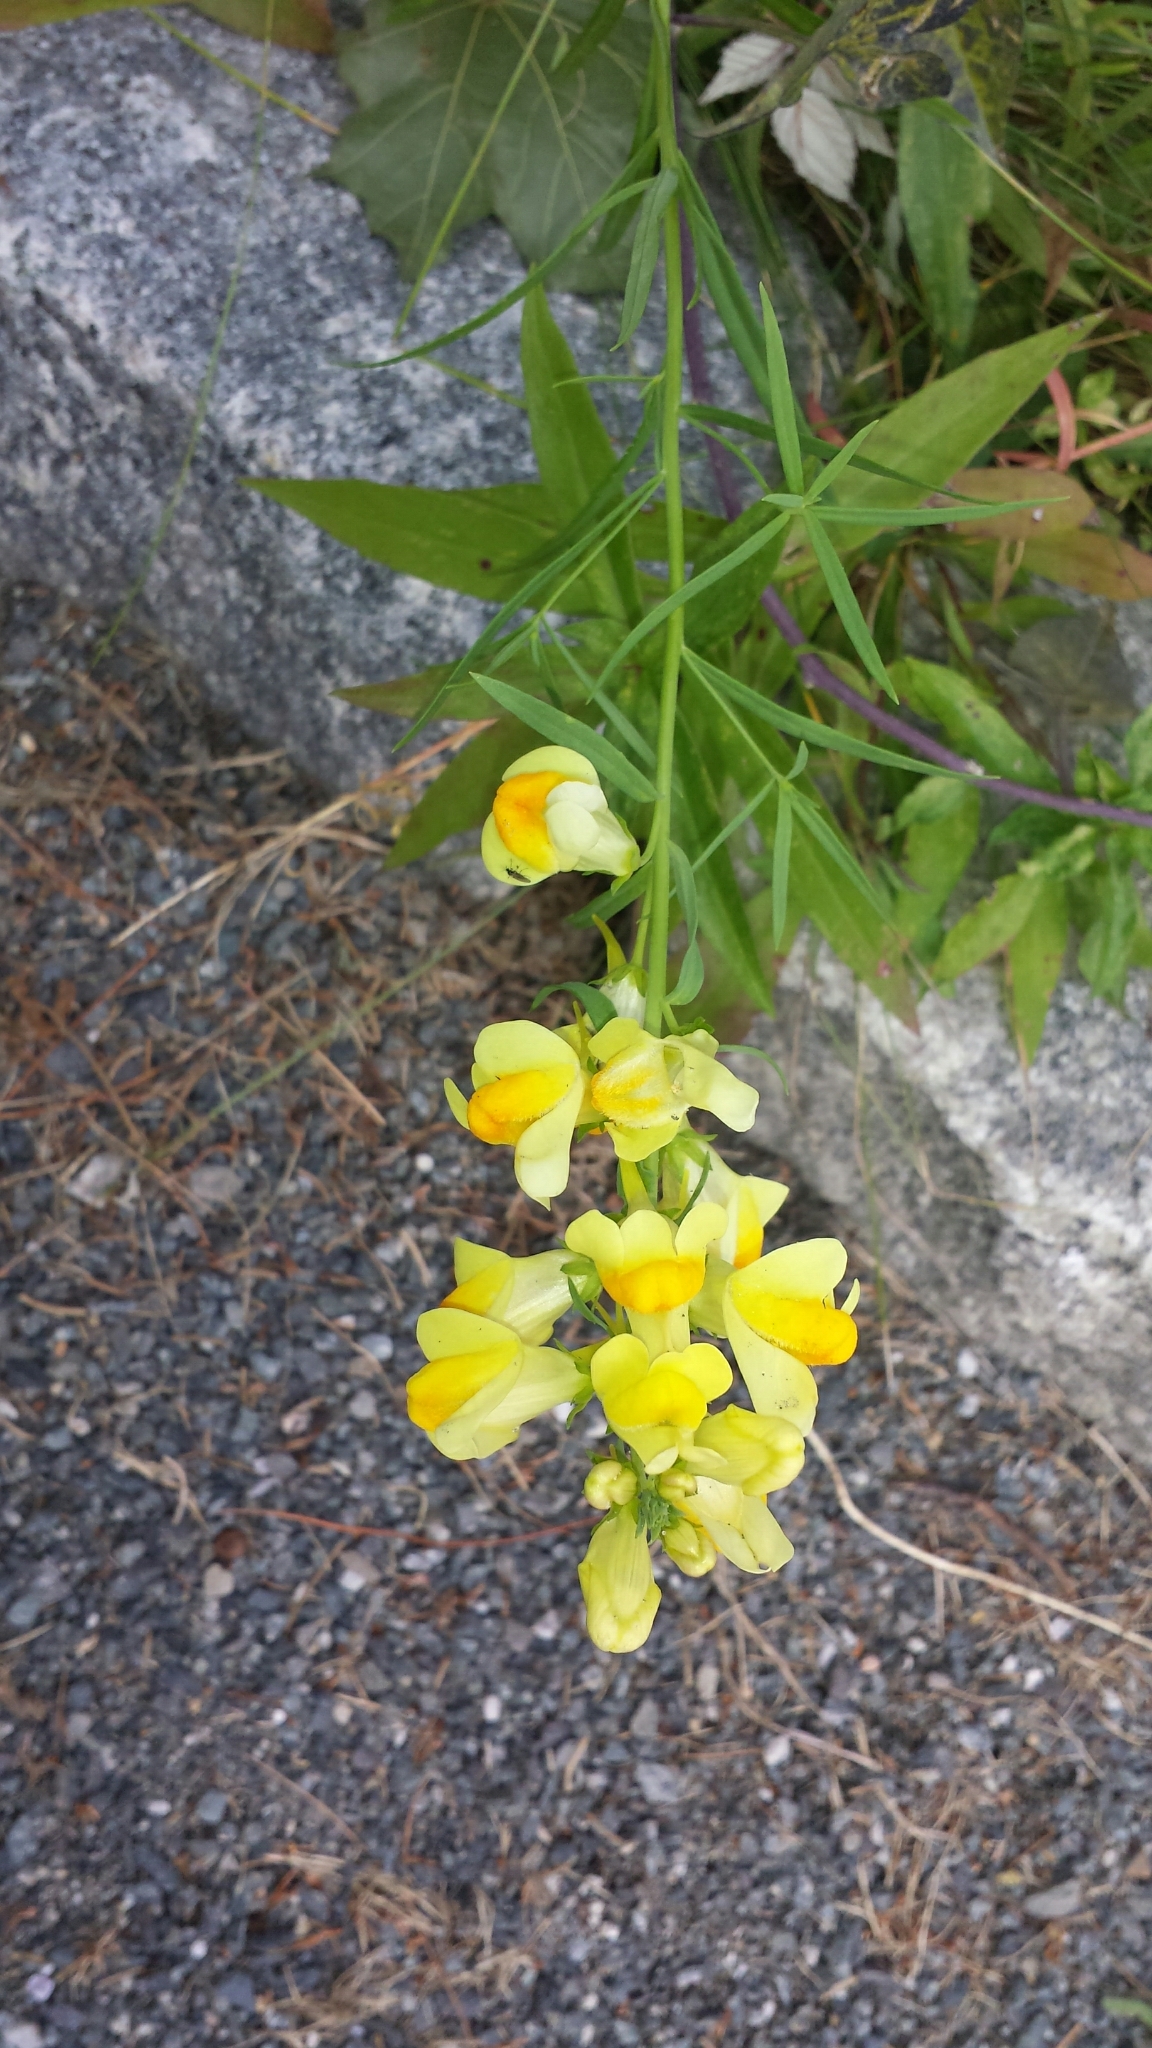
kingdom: Plantae
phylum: Tracheophyta
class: Magnoliopsida
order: Lamiales
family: Plantaginaceae
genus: Linaria
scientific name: Linaria vulgaris
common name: Butter and eggs
